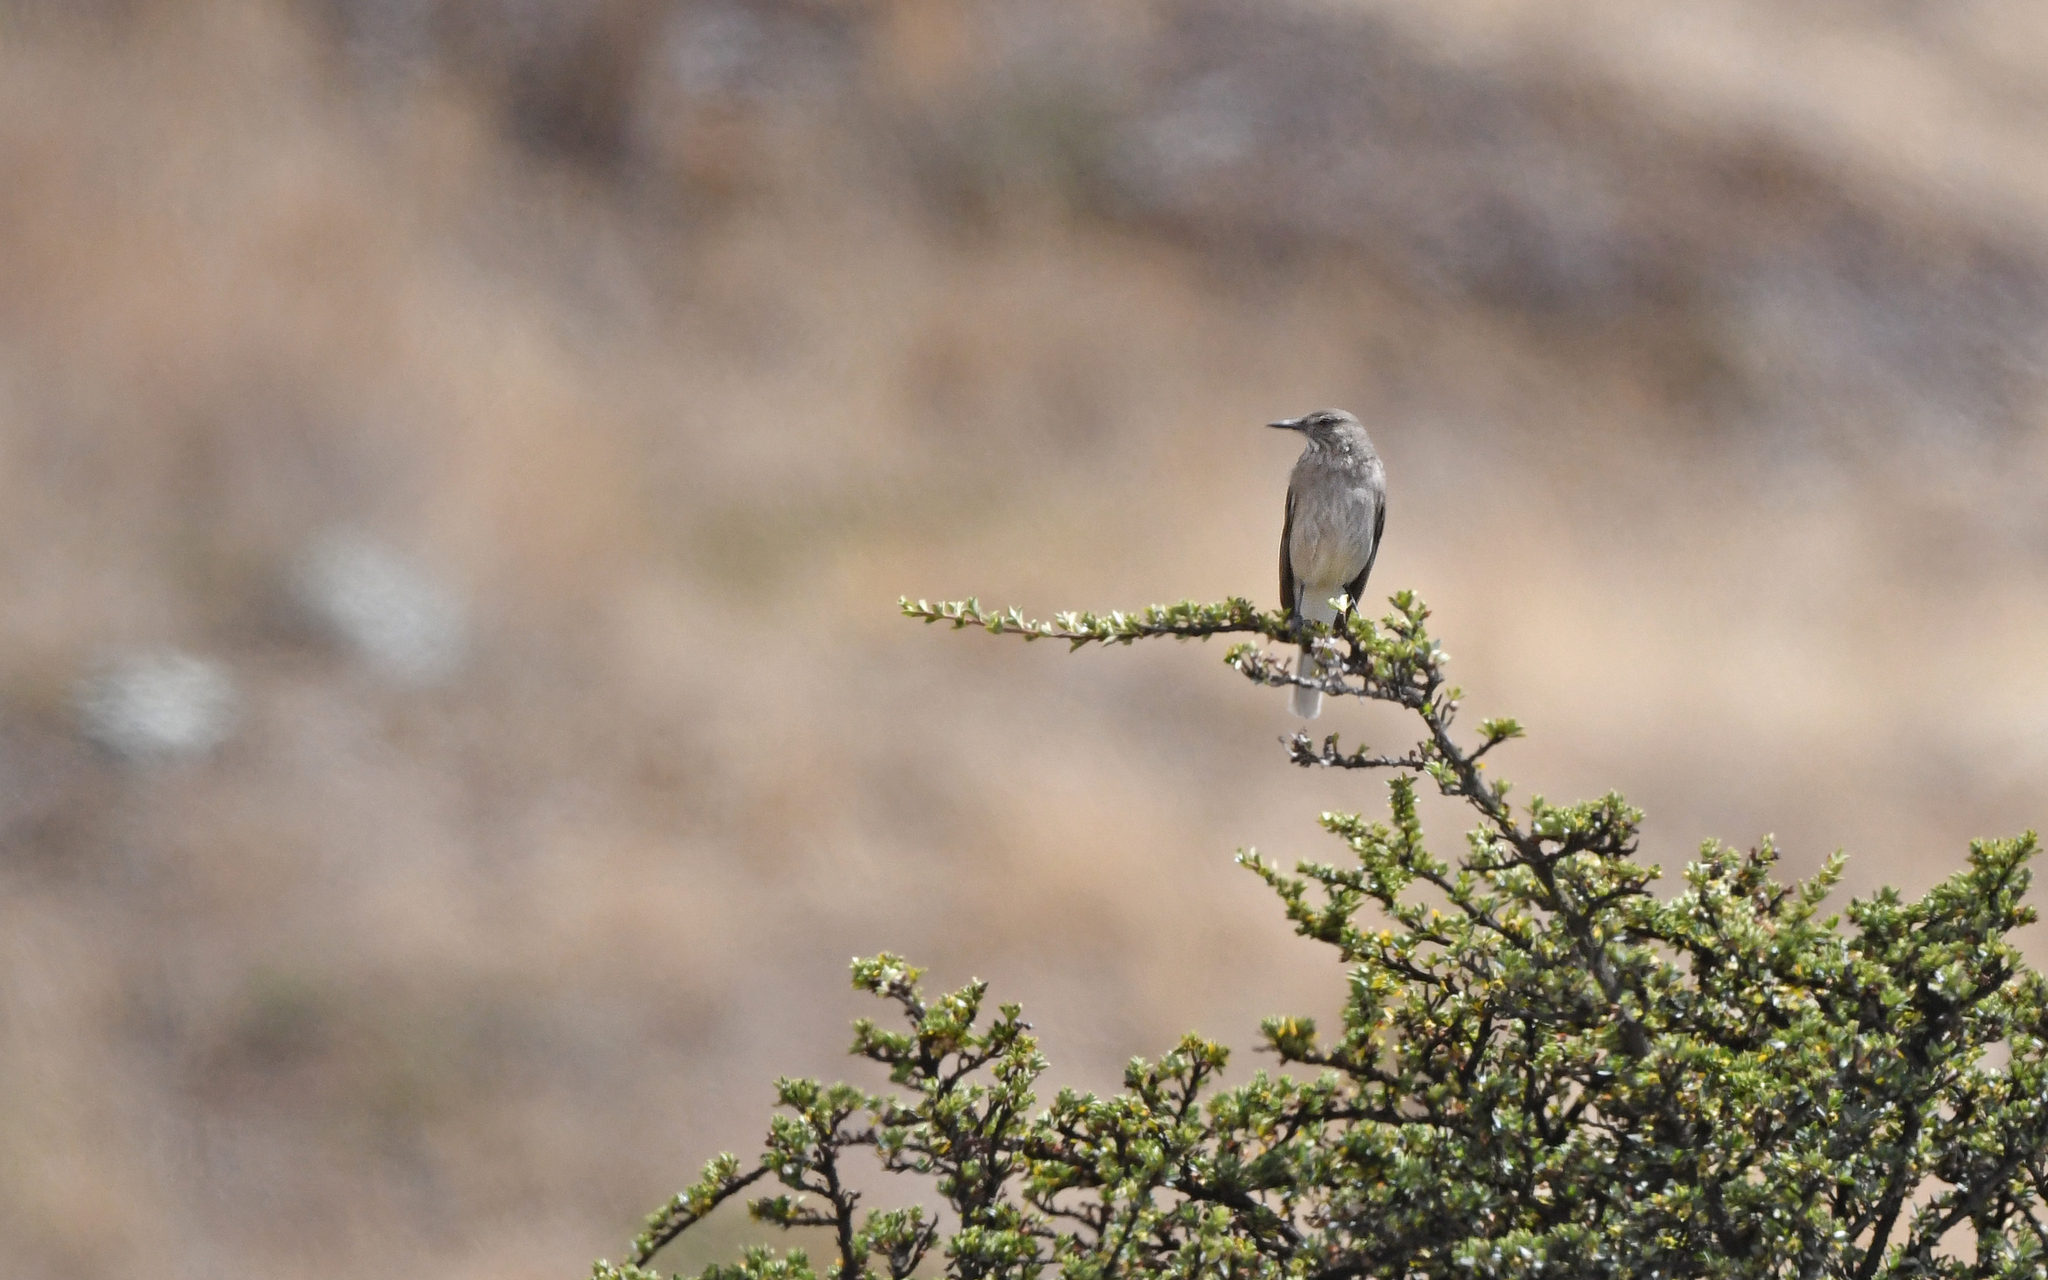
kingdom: Animalia
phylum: Chordata
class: Aves
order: Passeriformes
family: Tyrannidae
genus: Agriornis
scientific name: Agriornis montanus
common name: Black-billed shrike-tyrant
